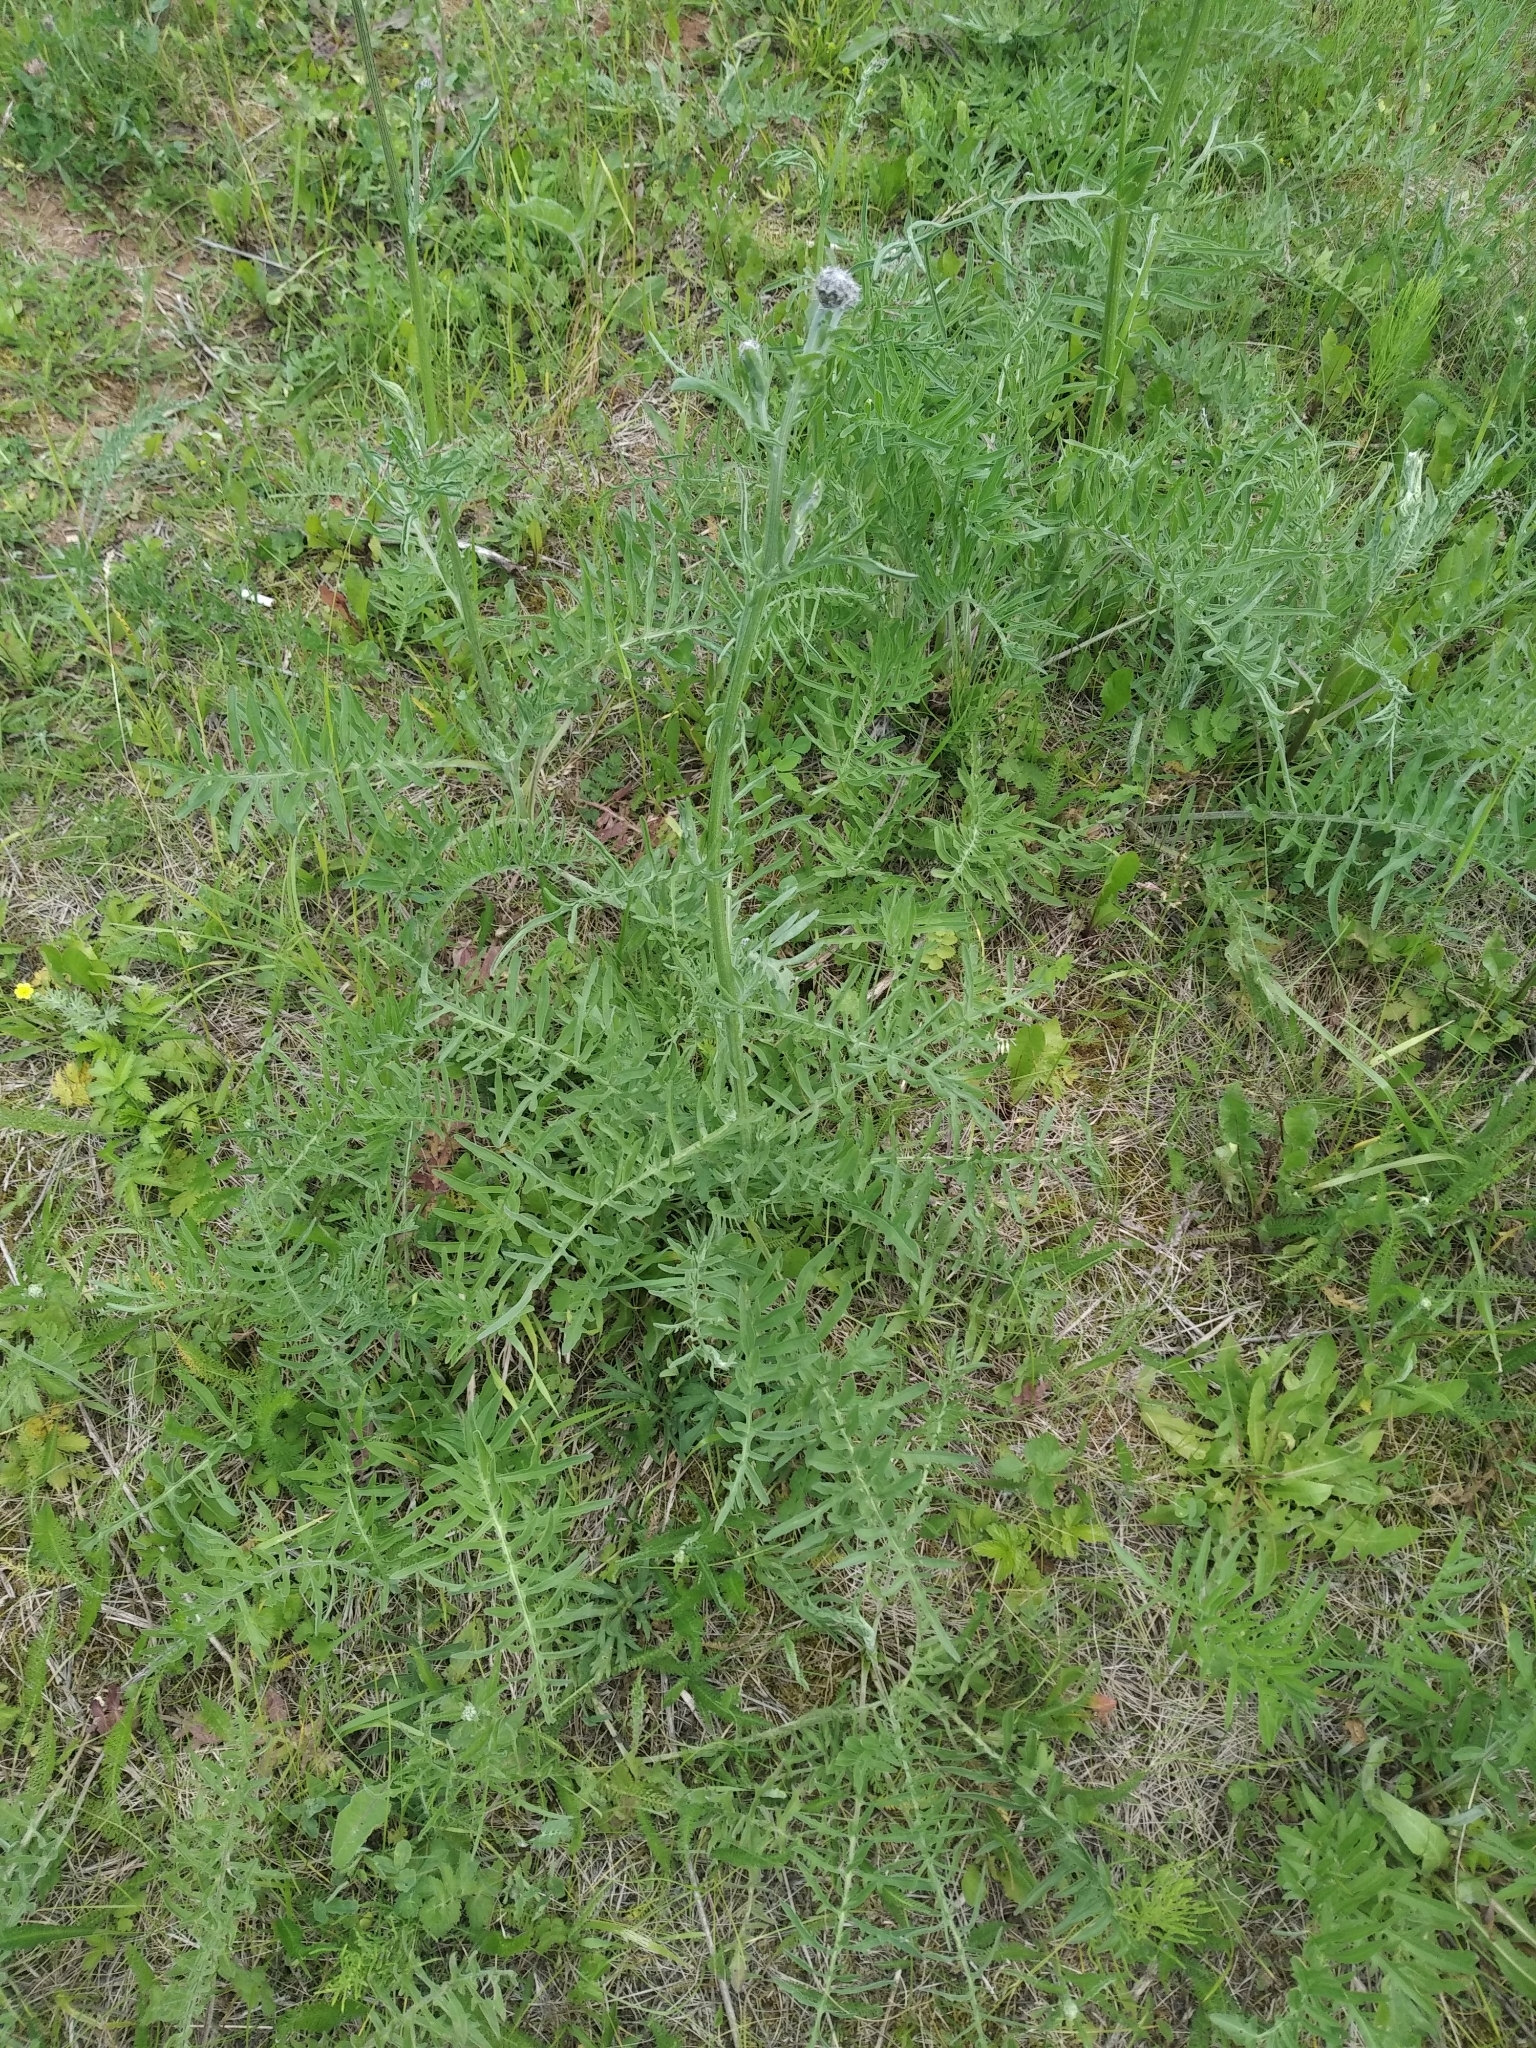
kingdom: Plantae
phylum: Tracheophyta
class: Magnoliopsida
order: Asterales
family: Asteraceae
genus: Centaurea
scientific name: Centaurea scabiosa
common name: Greater knapweed
